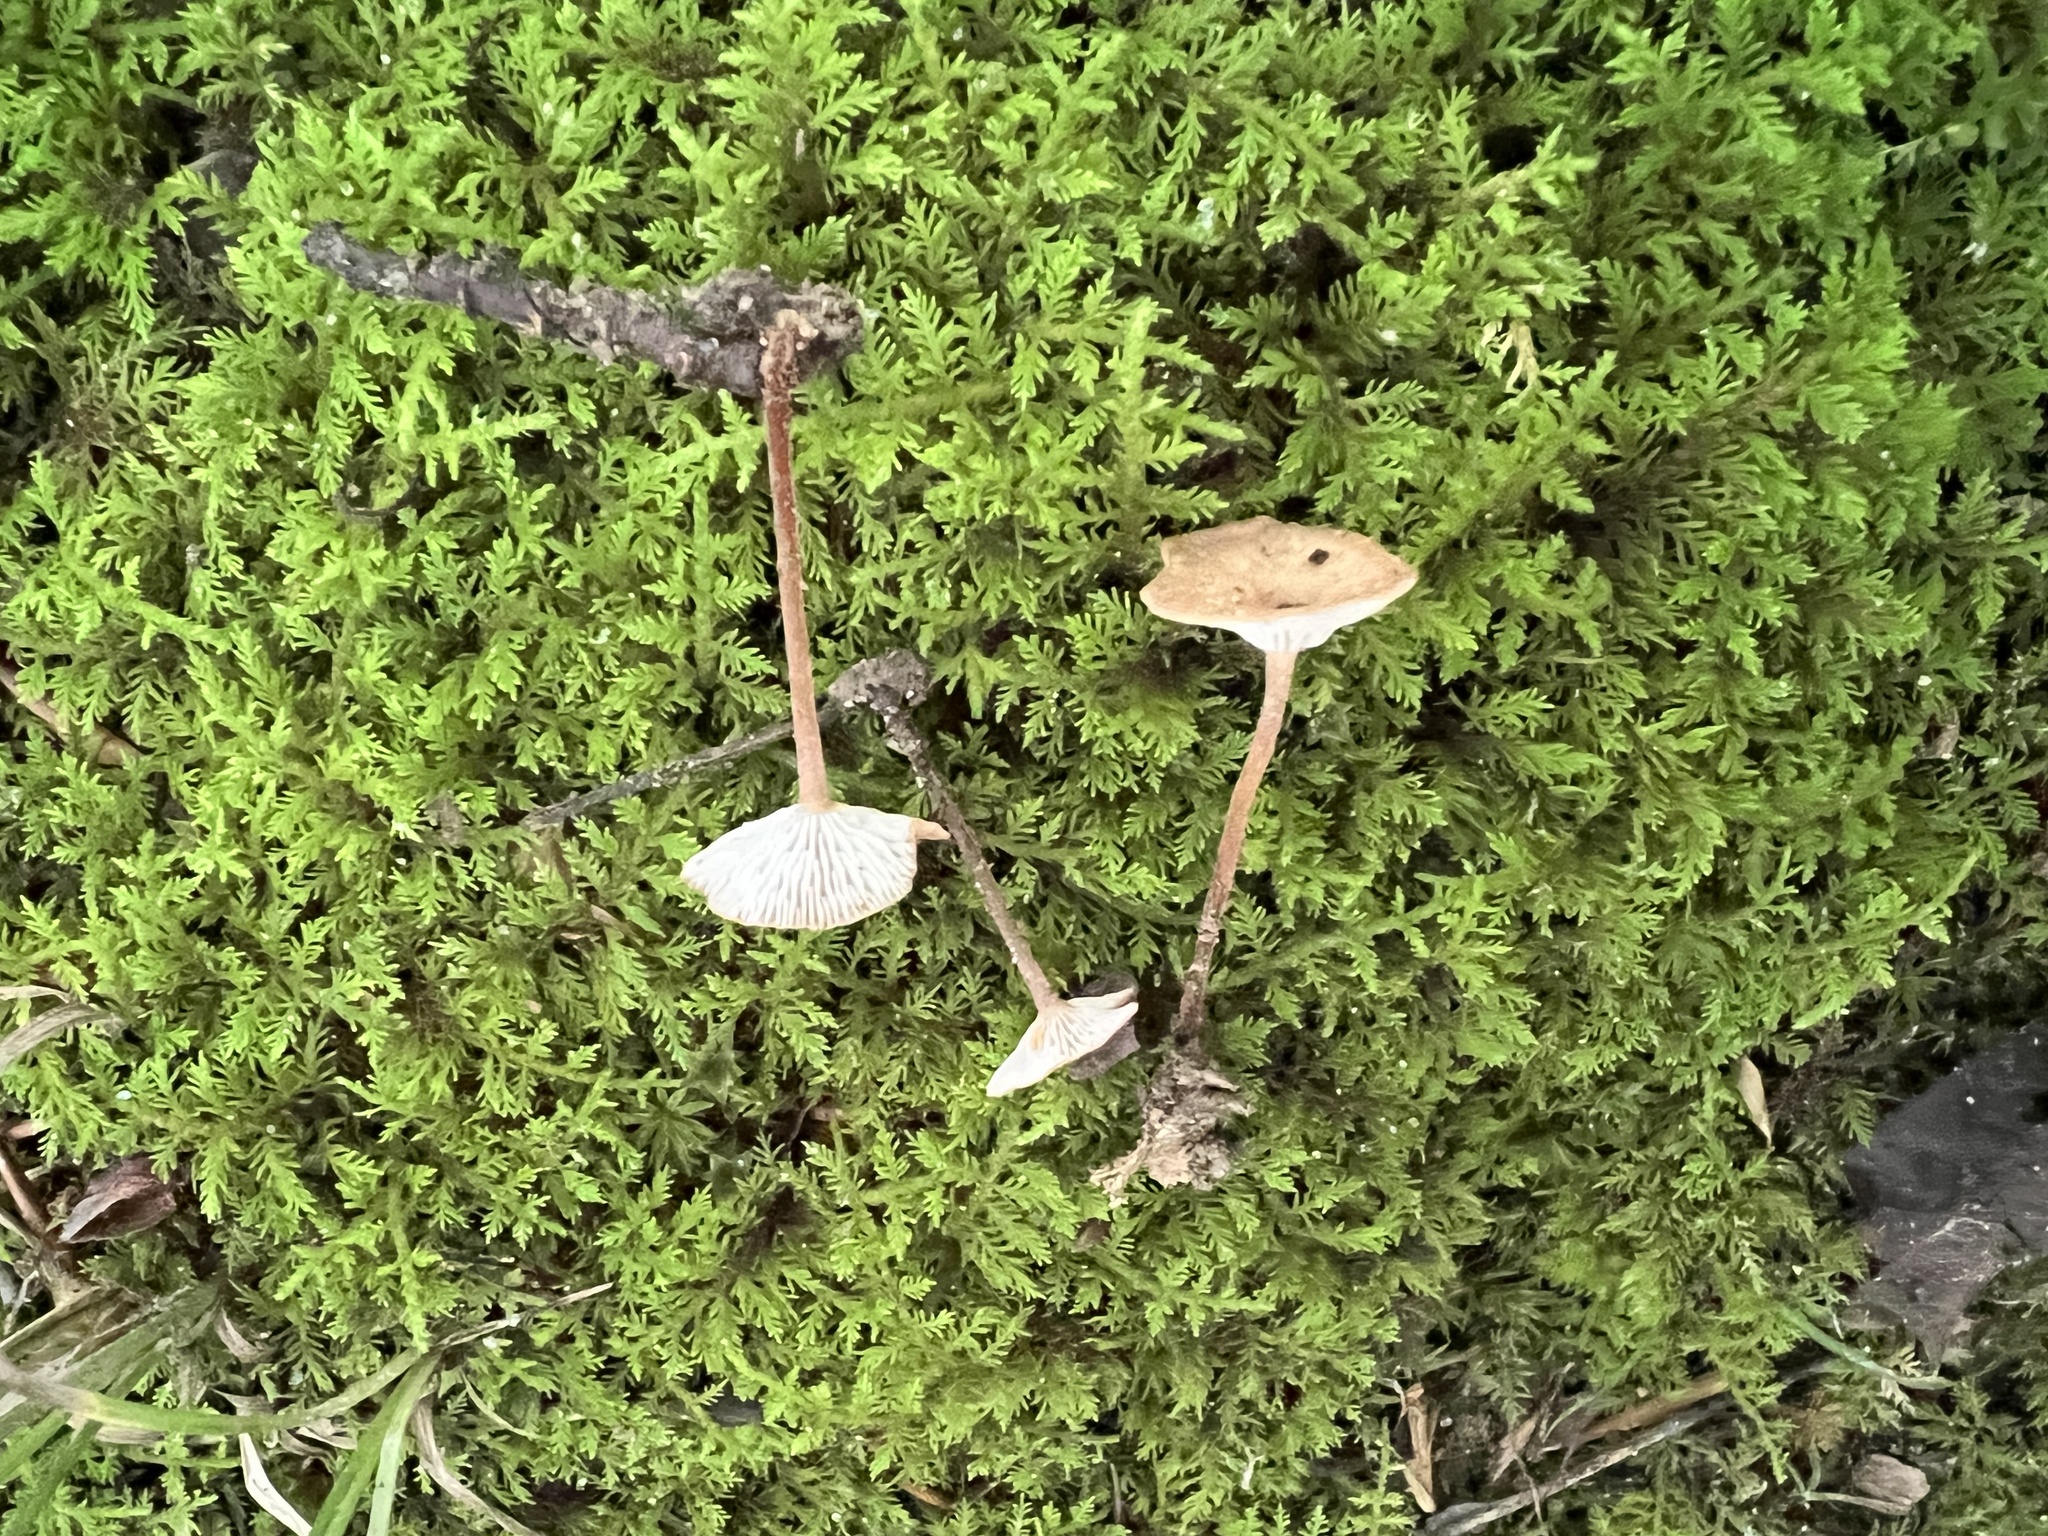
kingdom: Fungi
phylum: Basidiomycota
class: Agaricomycetes
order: Agaricales
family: Omphalotaceae
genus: Collybiopsis
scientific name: Collybiopsis biformis
